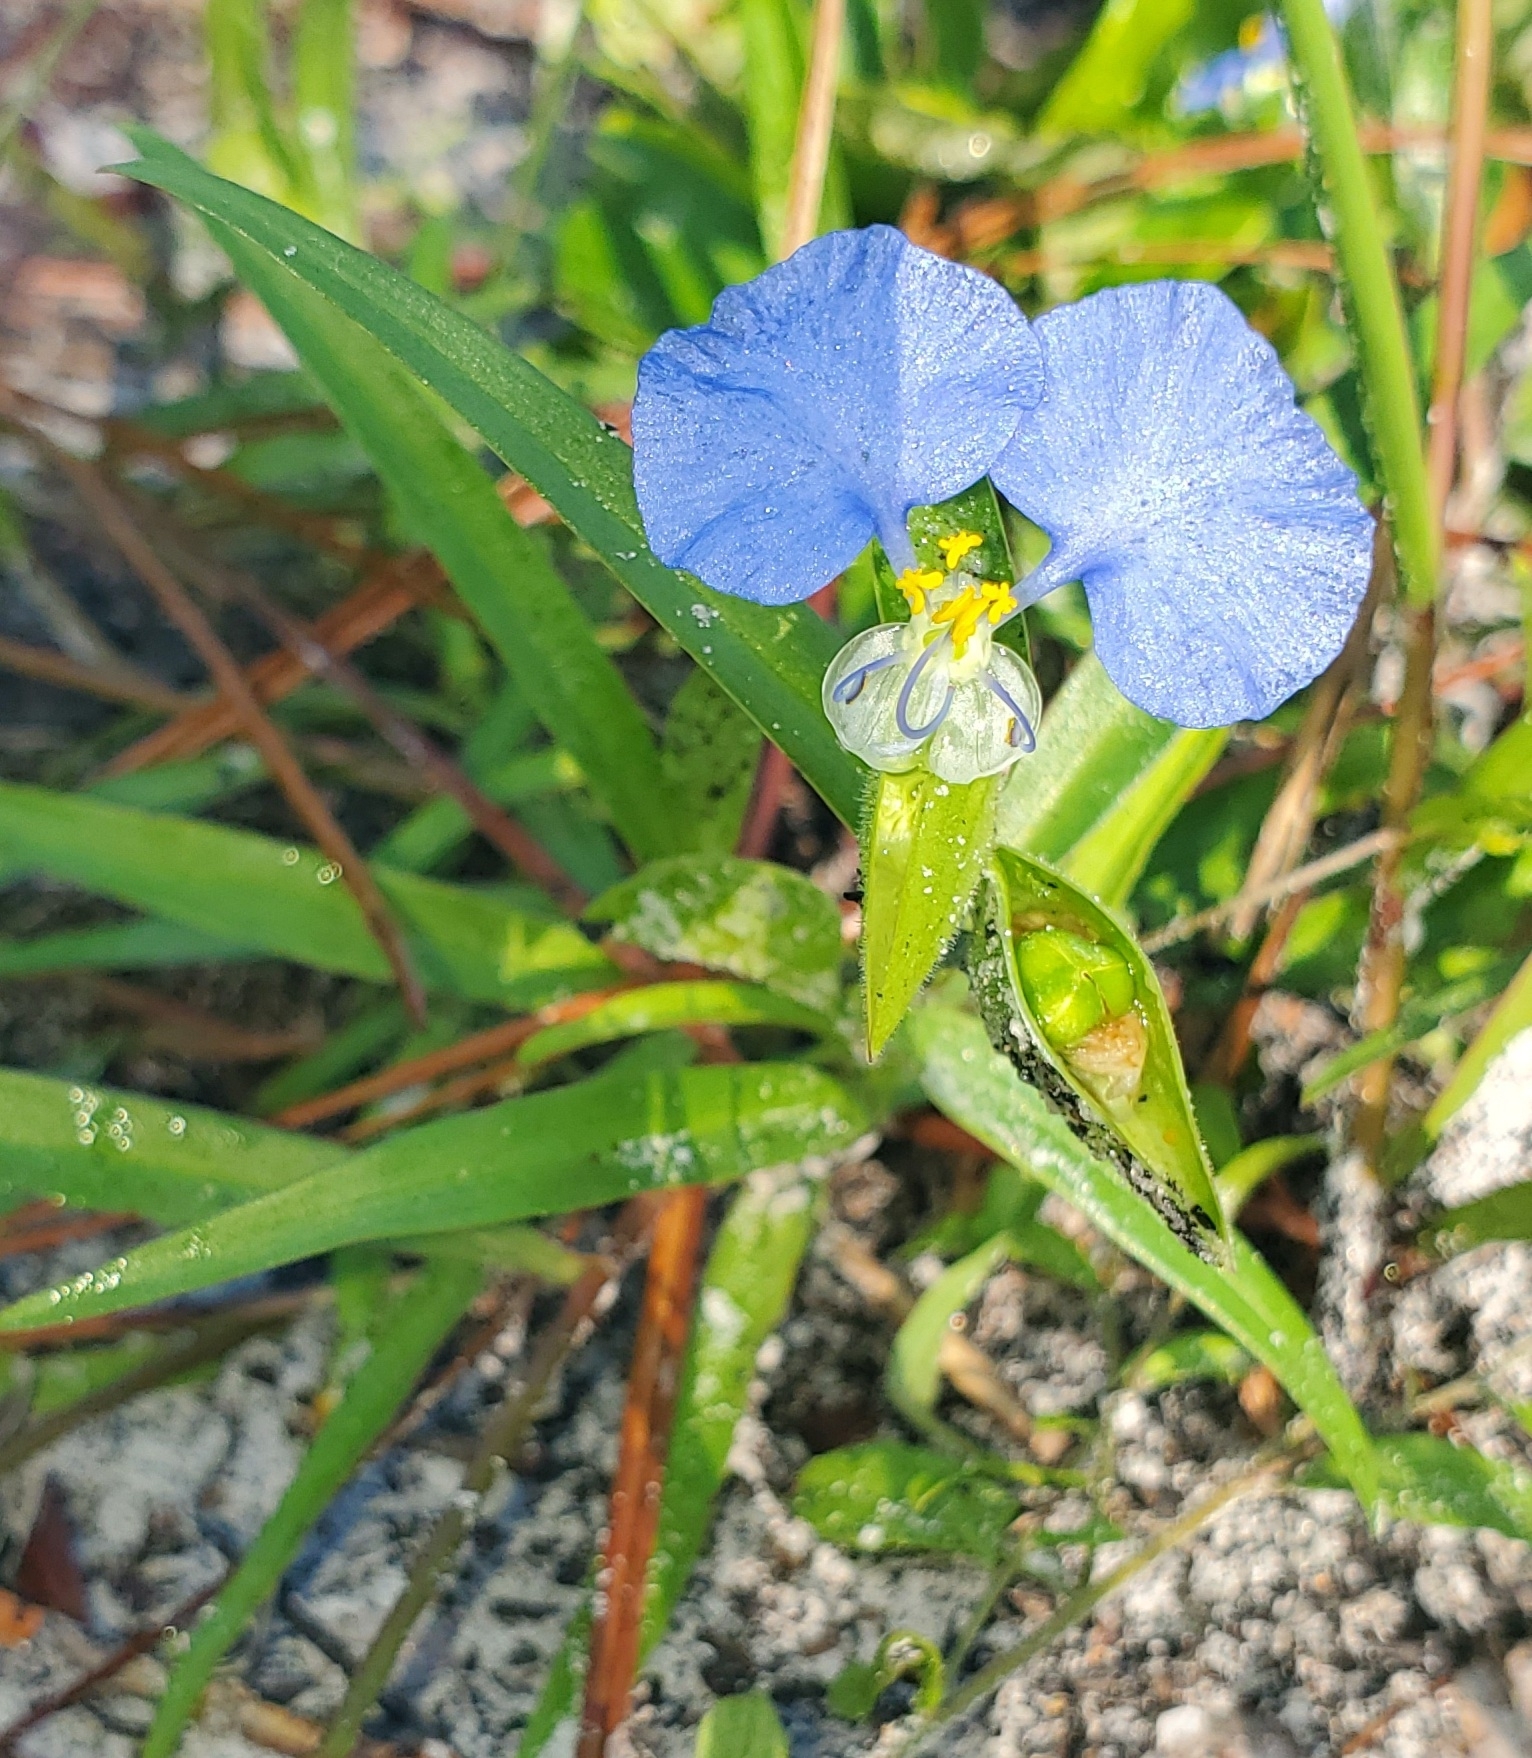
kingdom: Plantae
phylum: Tracheophyta
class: Liliopsida
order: Commelinales
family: Commelinaceae
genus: Commelina
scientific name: Commelina erecta
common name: Blousel blommetjie
